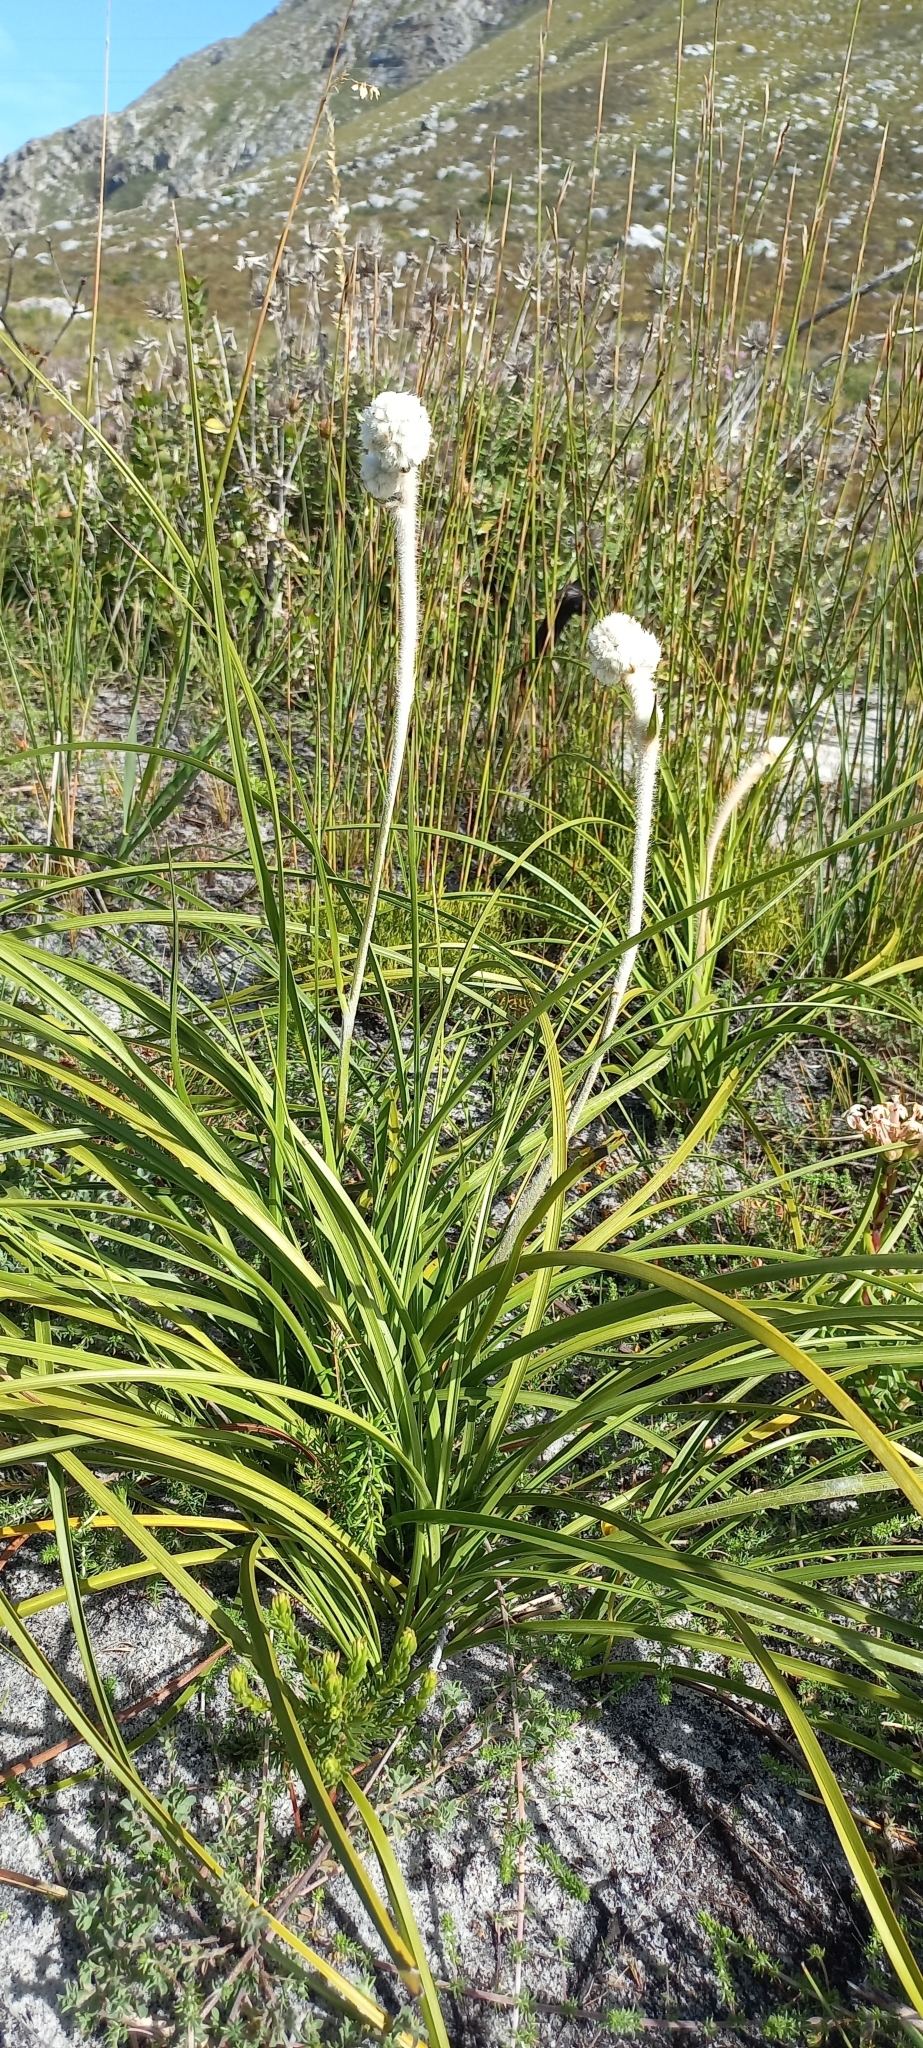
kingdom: Plantae
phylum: Tracheophyta
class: Liliopsida
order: Asparagales
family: Lanariaceae
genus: Lanaria
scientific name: Lanaria lanata
